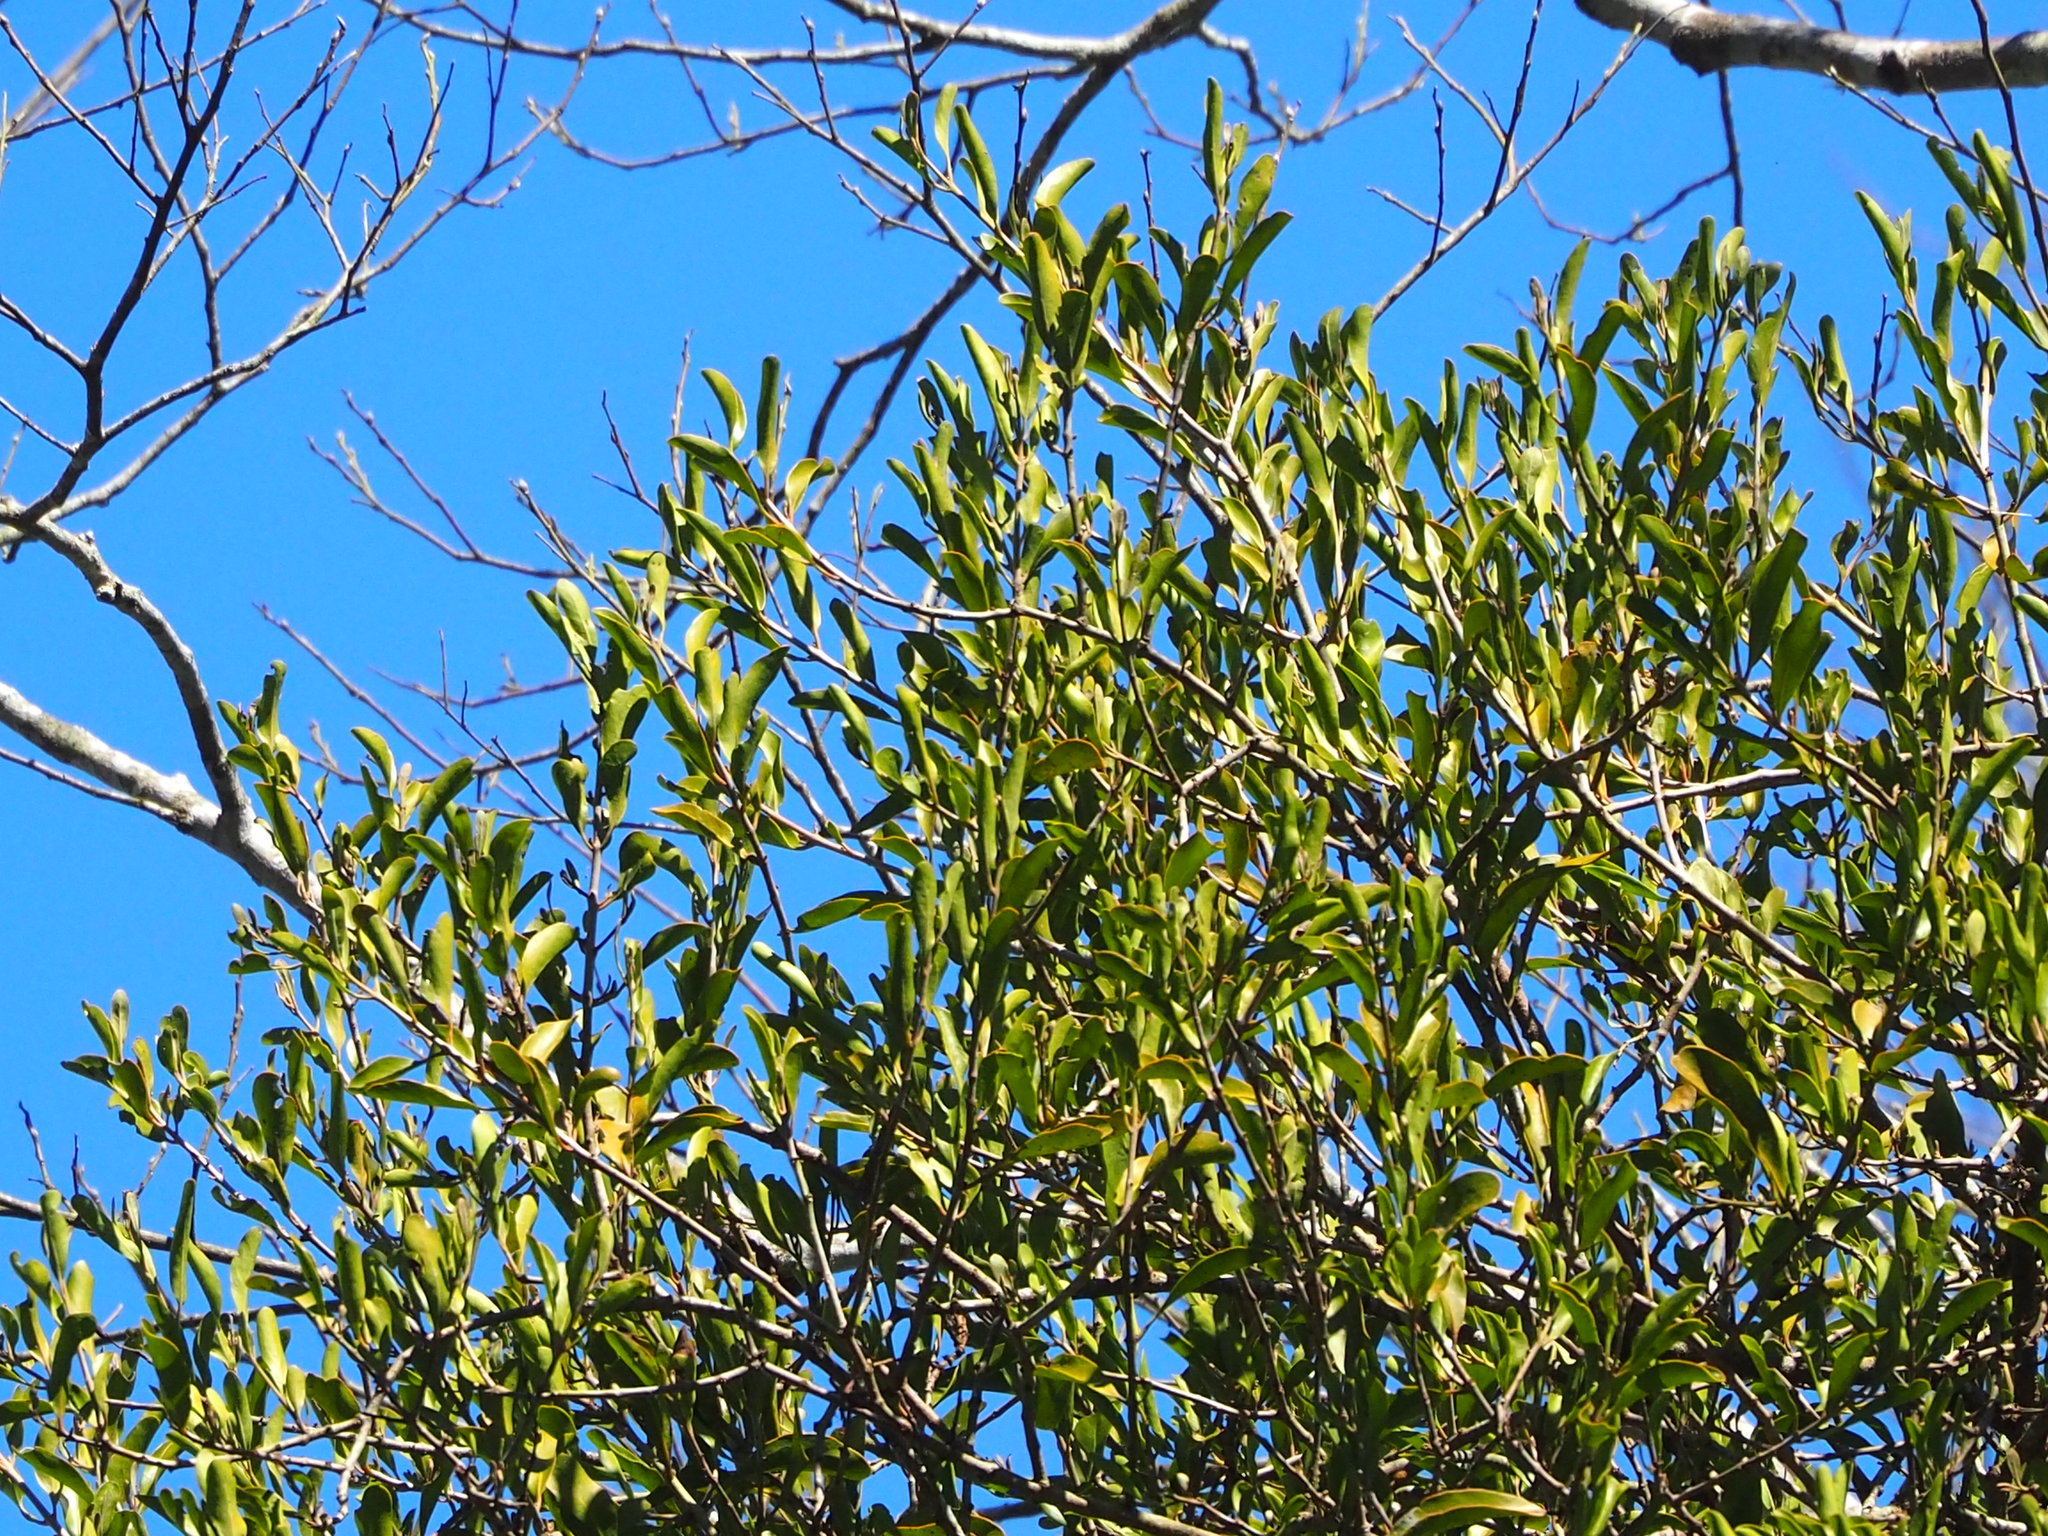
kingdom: Plantae
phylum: Tracheophyta
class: Magnoliopsida
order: Santalales
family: Loranthaceae
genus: Taxillus
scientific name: Taxillus theifer
